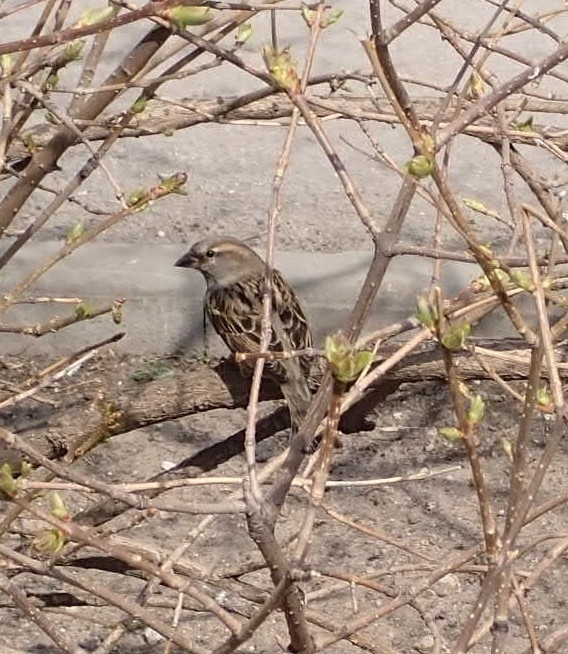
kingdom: Animalia
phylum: Chordata
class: Aves
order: Passeriformes
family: Passeridae
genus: Passer
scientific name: Passer domesticus
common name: House sparrow
